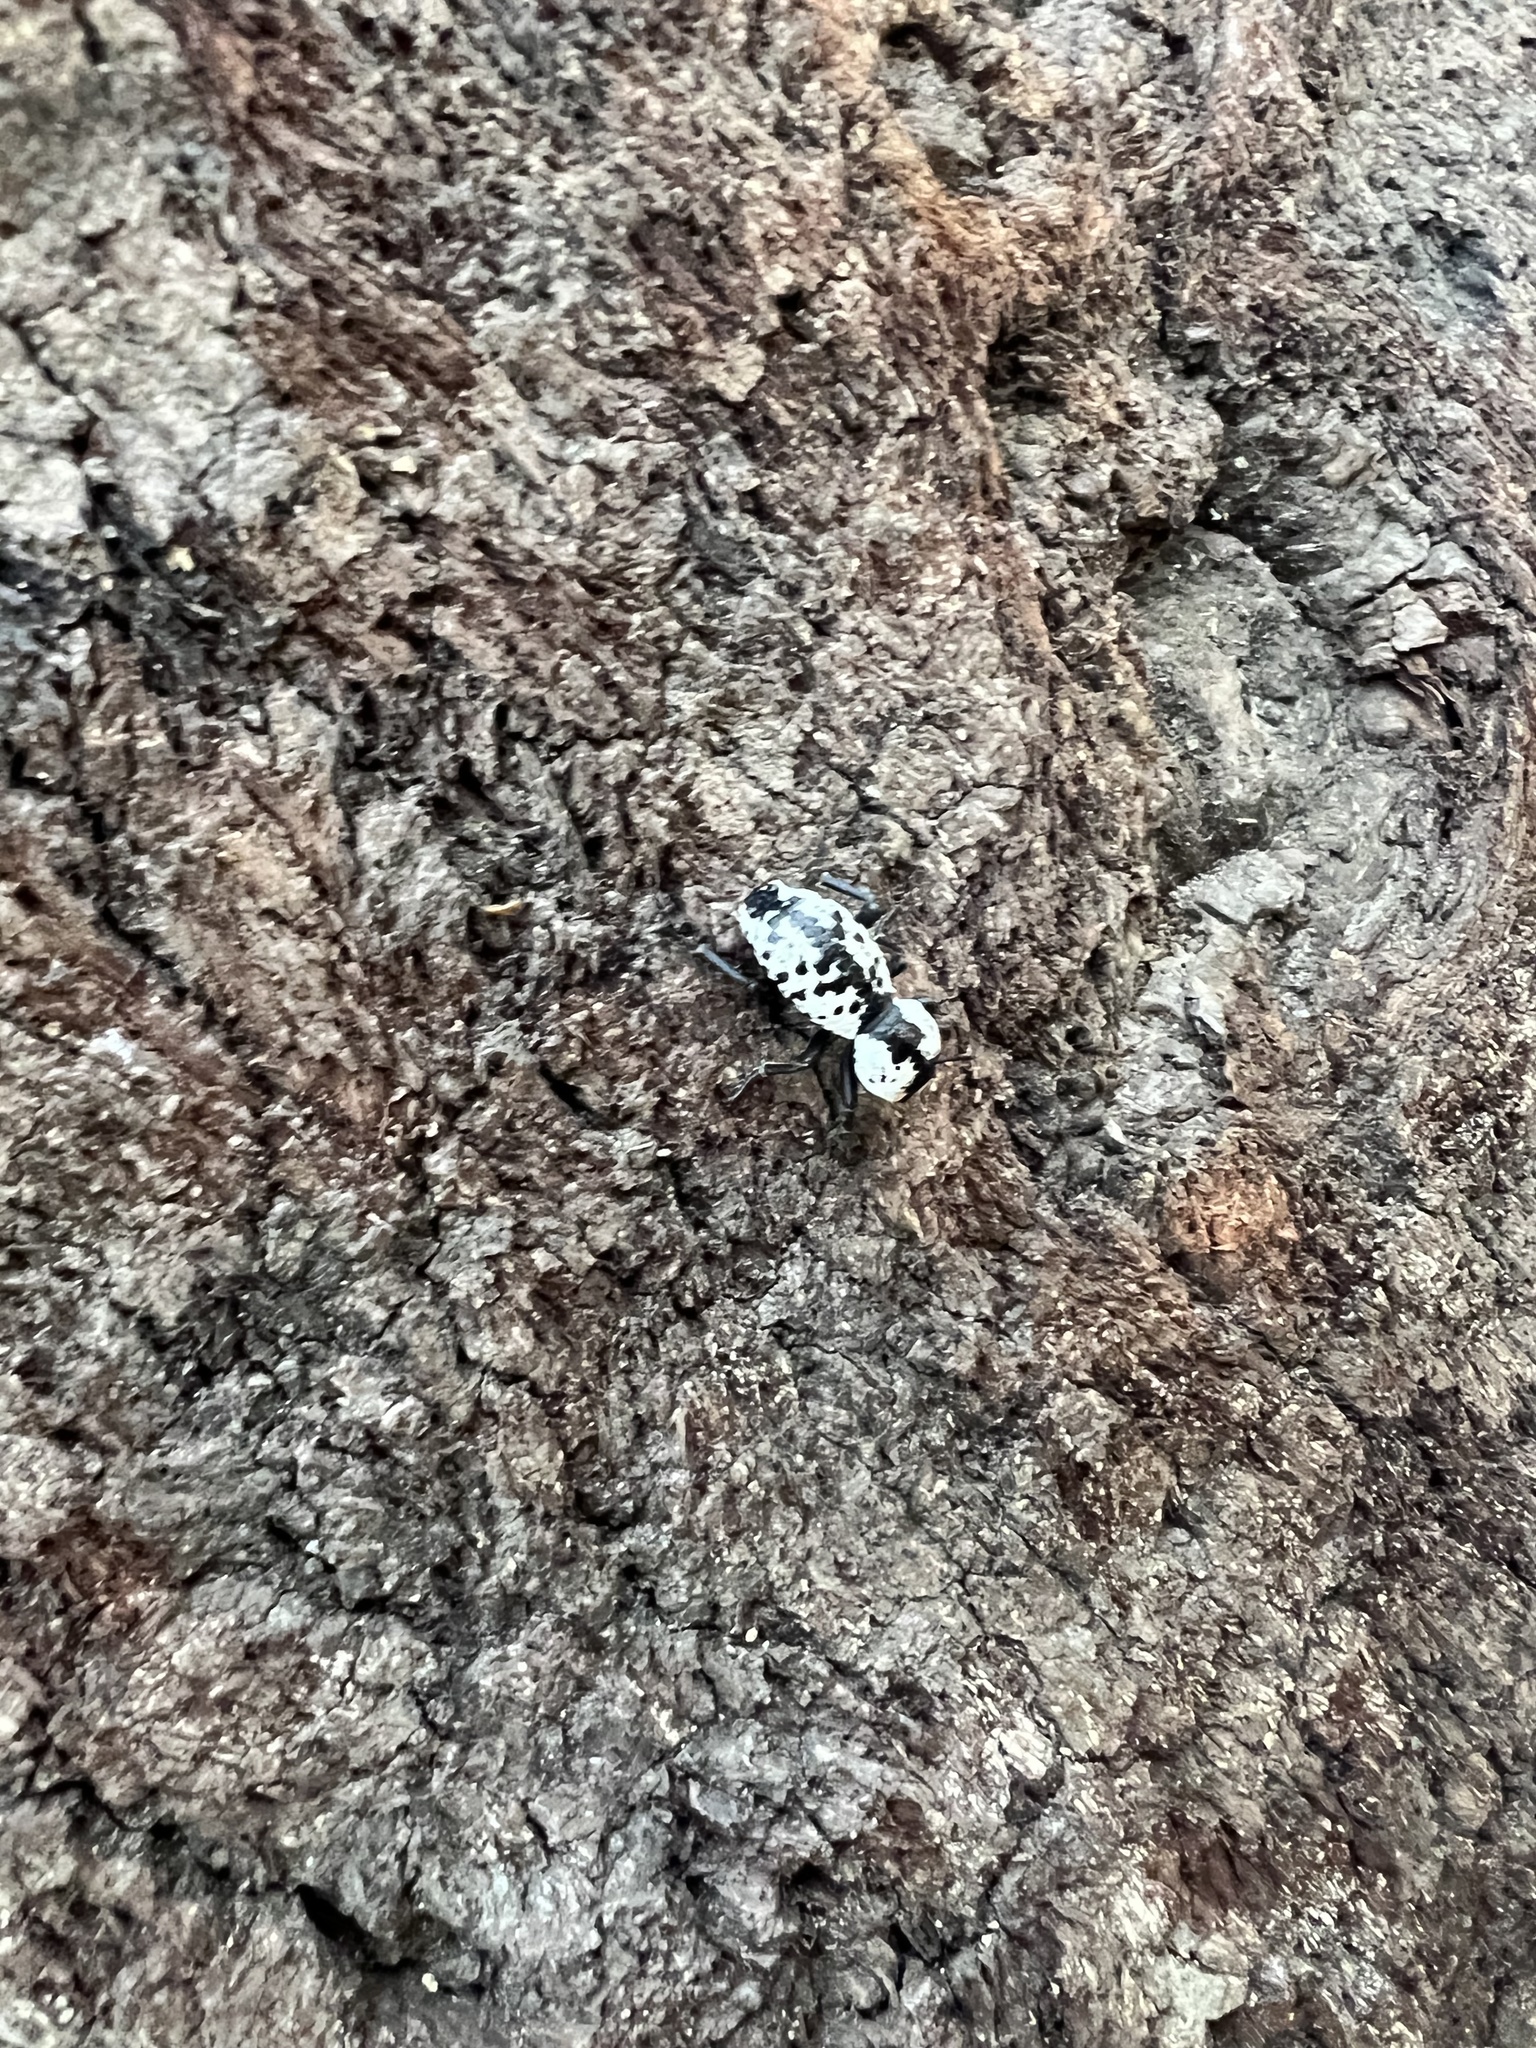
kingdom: Animalia
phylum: Arthropoda
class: Insecta
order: Coleoptera
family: Zopheridae
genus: Zopherus
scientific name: Zopherus nodulosus
